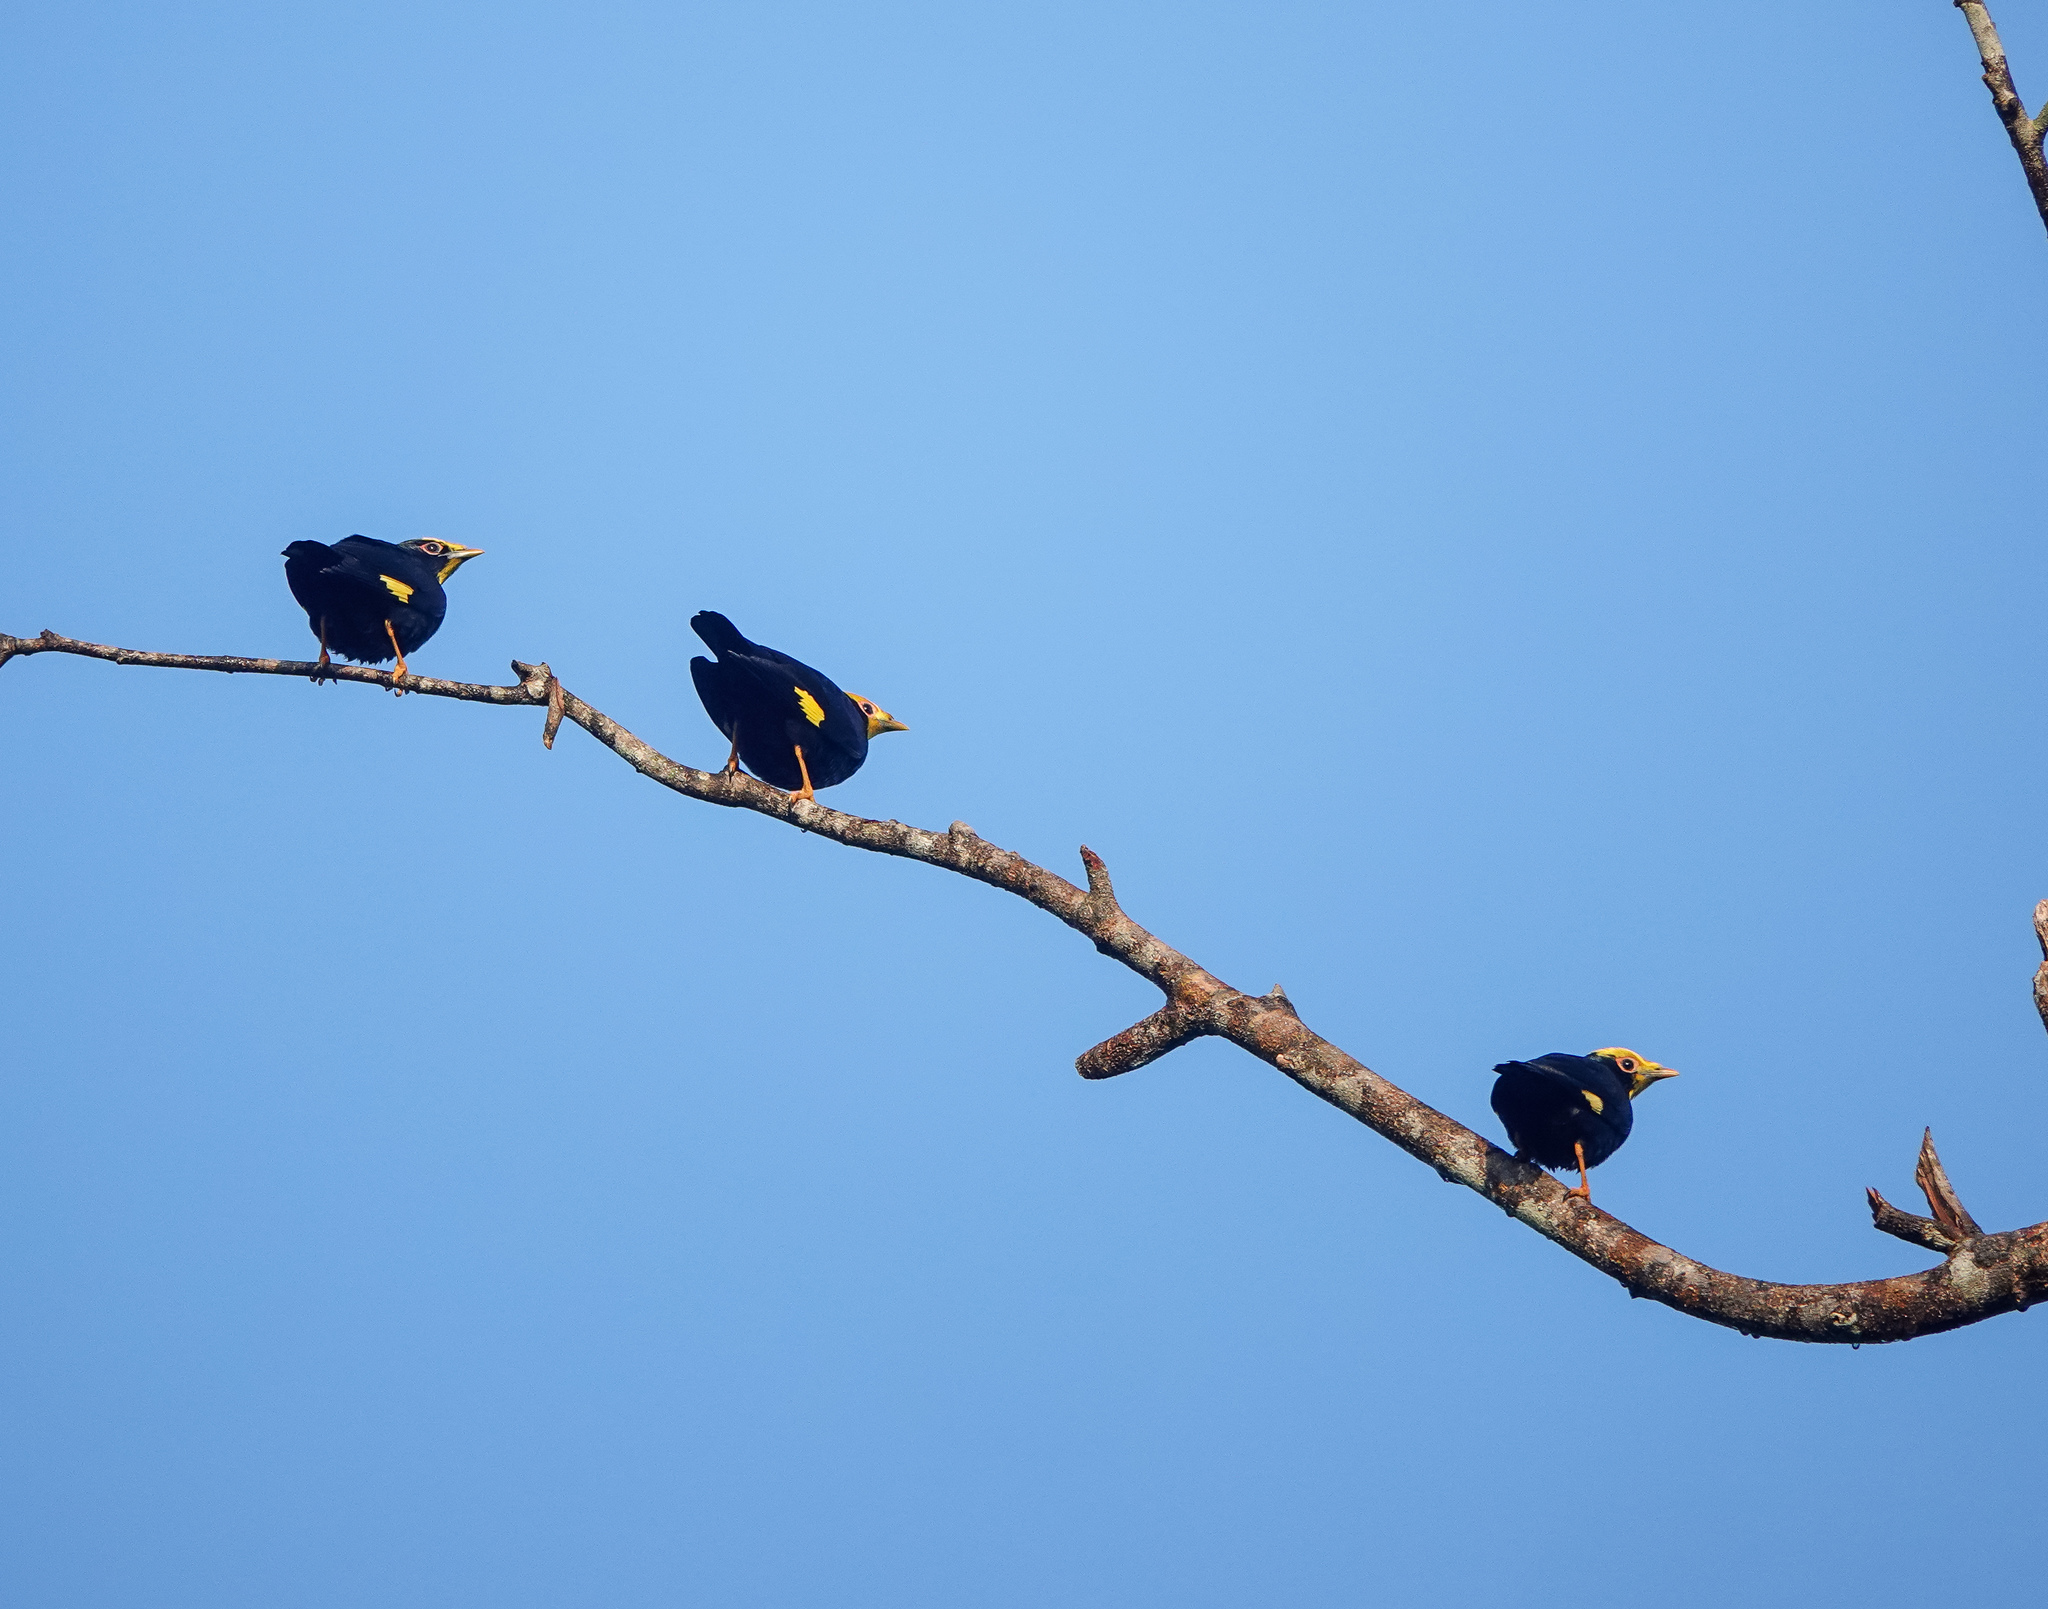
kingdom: Animalia
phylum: Chordata
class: Aves
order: Passeriformes
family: Sturnidae
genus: Ampeliceps
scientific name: Ampeliceps coronatus
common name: Golden-crested myna
